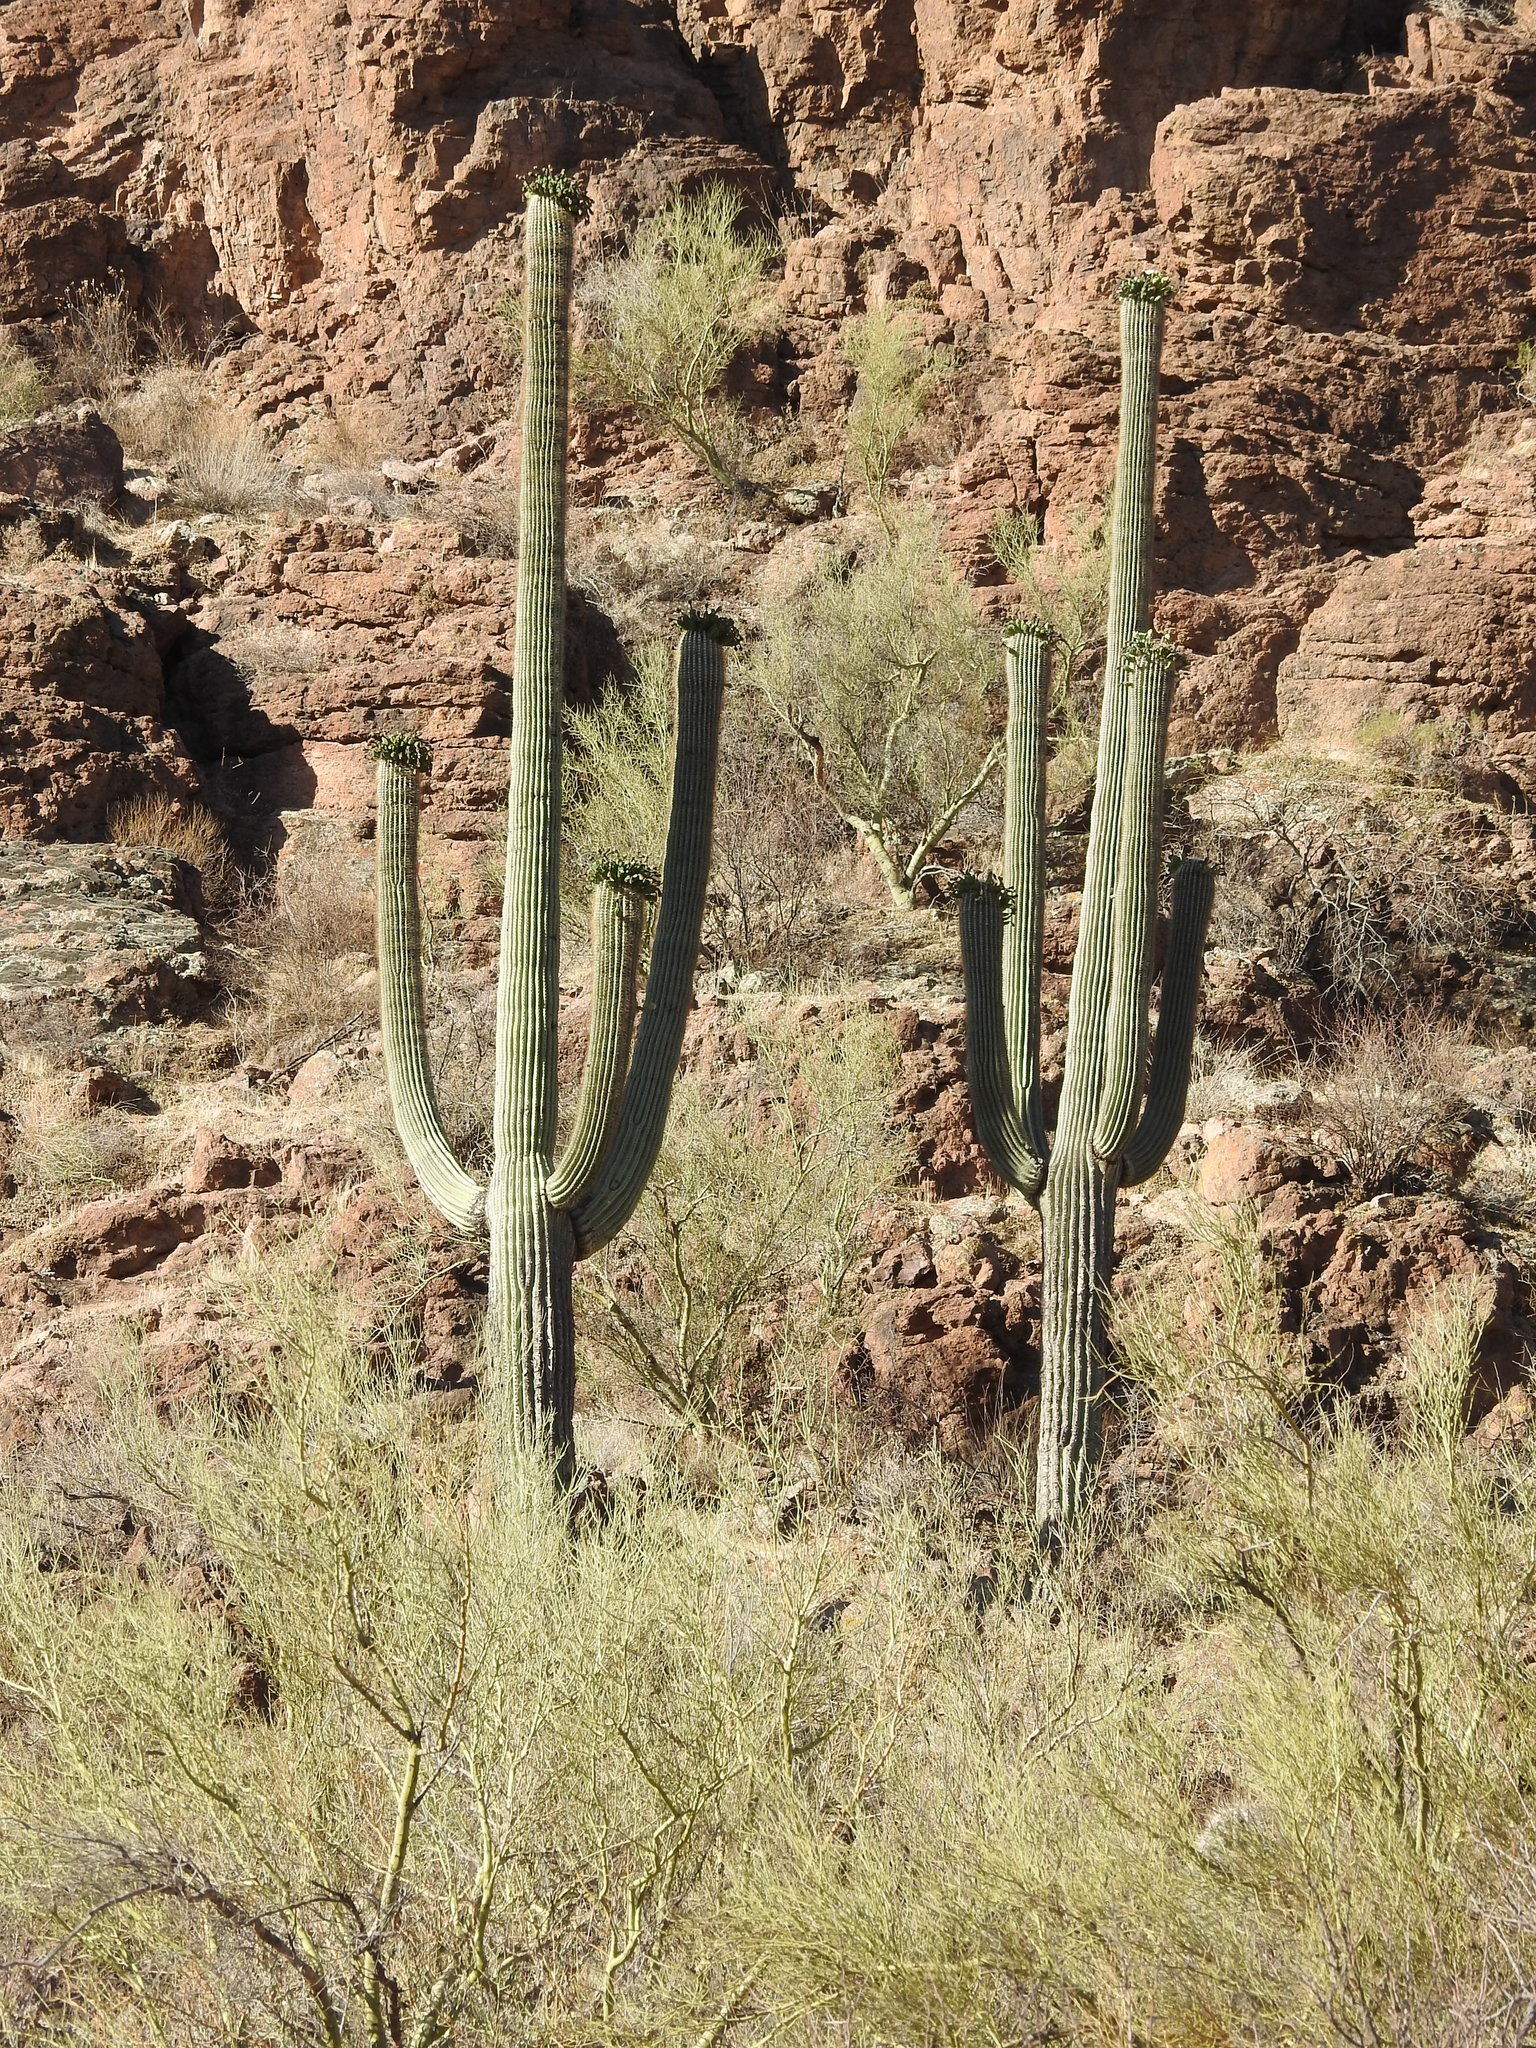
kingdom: Plantae
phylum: Tracheophyta
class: Magnoliopsida
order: Caryophyllales
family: Cactaceae
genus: Carnegiea
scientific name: Carnegiea gigantea
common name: Saguaro
